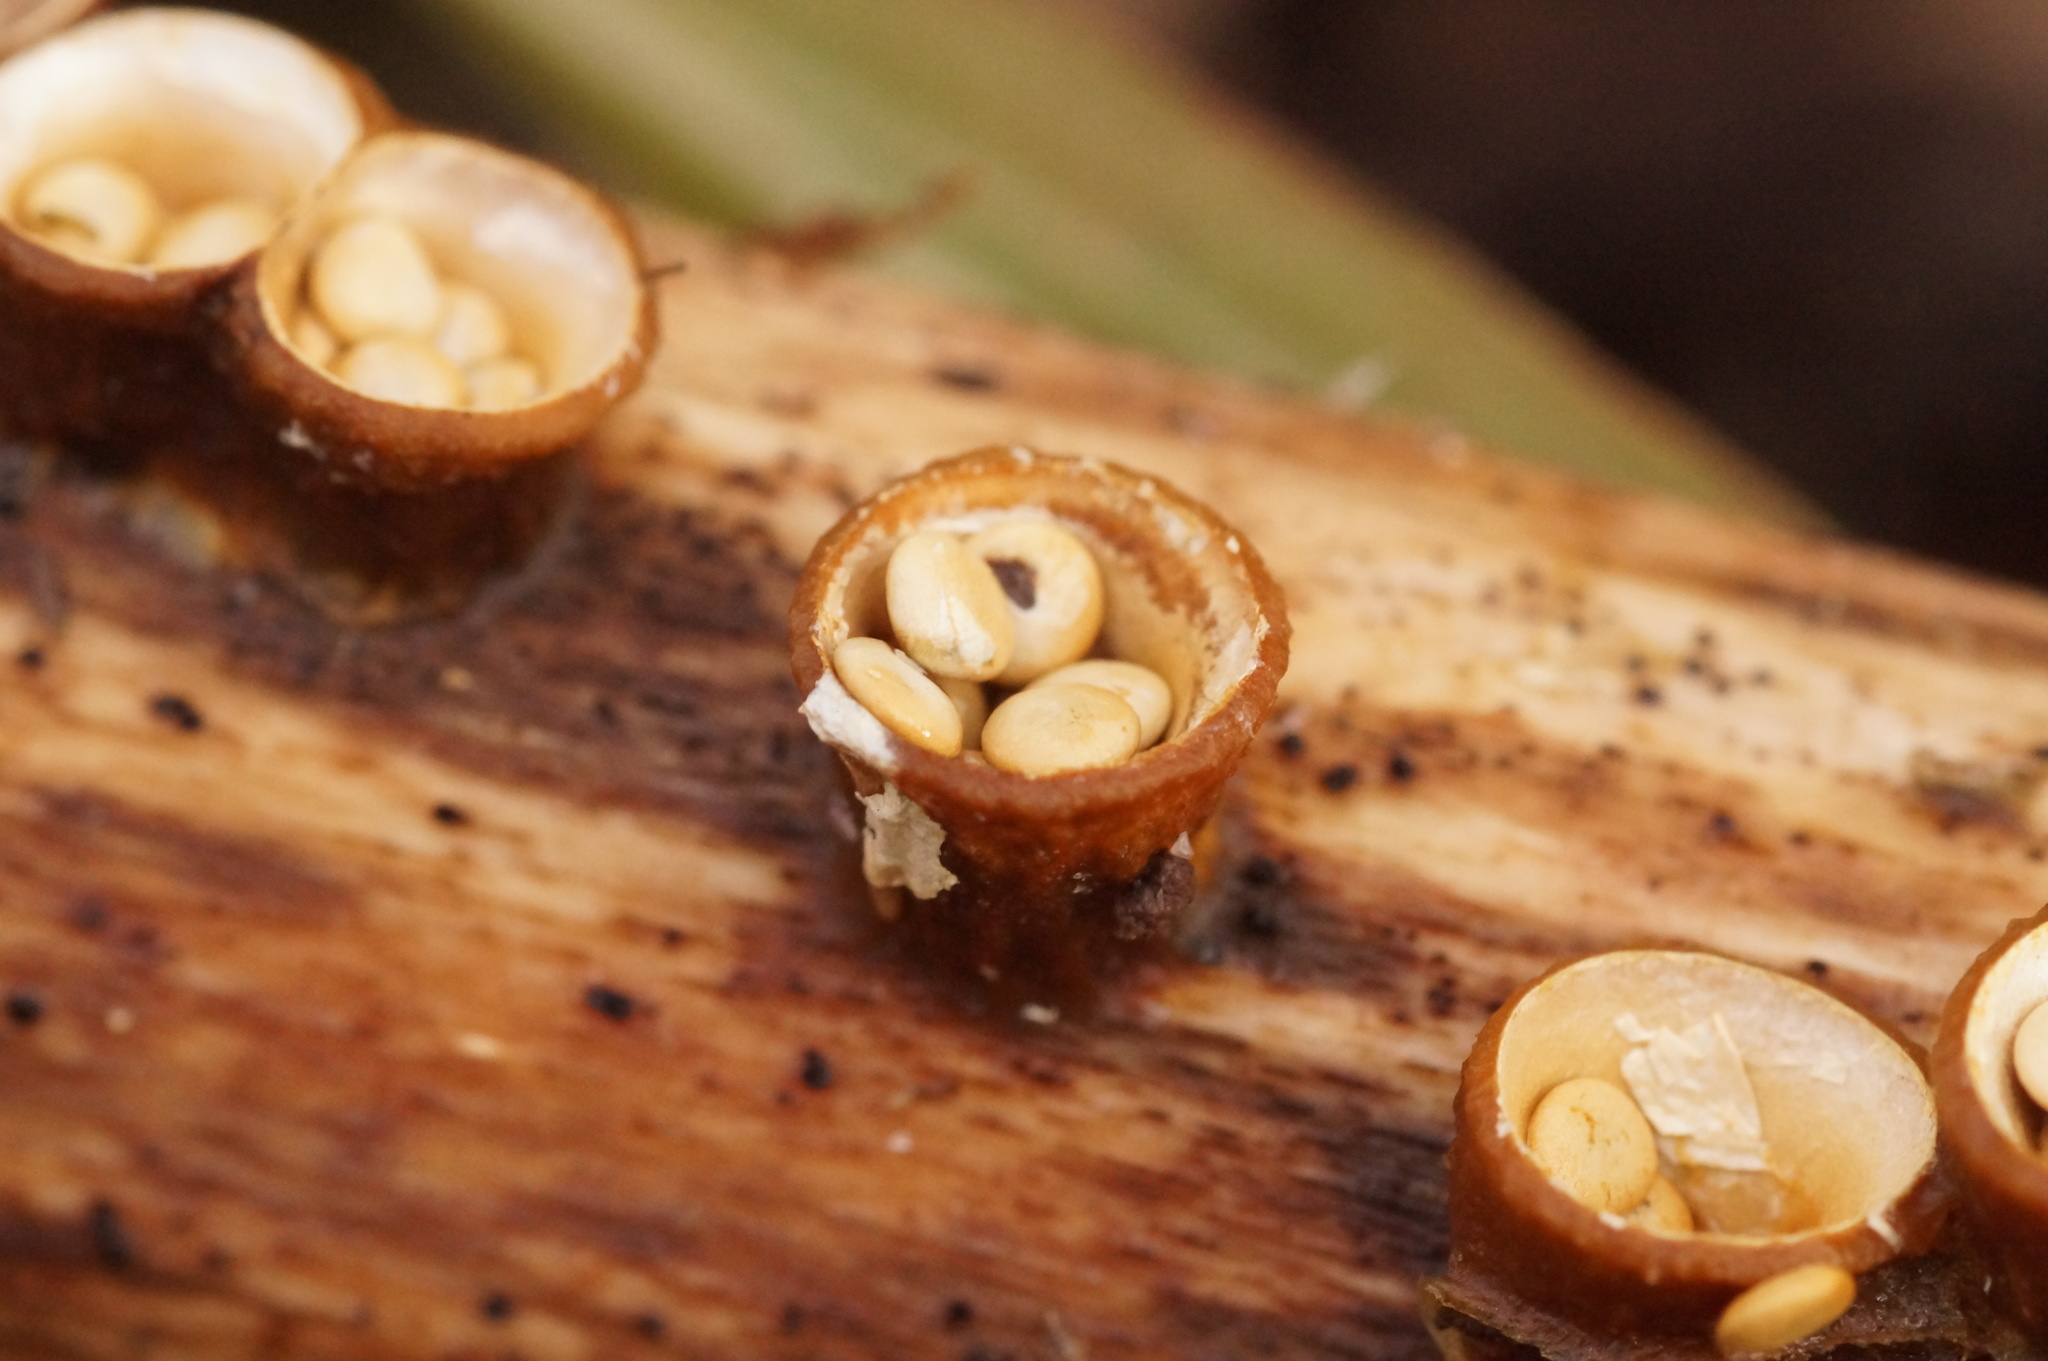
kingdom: Fungi
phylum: Basidiomycota
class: Agaricomycetes
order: Agaricales
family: Nidulariaceae
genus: Crucibulum
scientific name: Crucibulum laeve
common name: Common bird's nest
